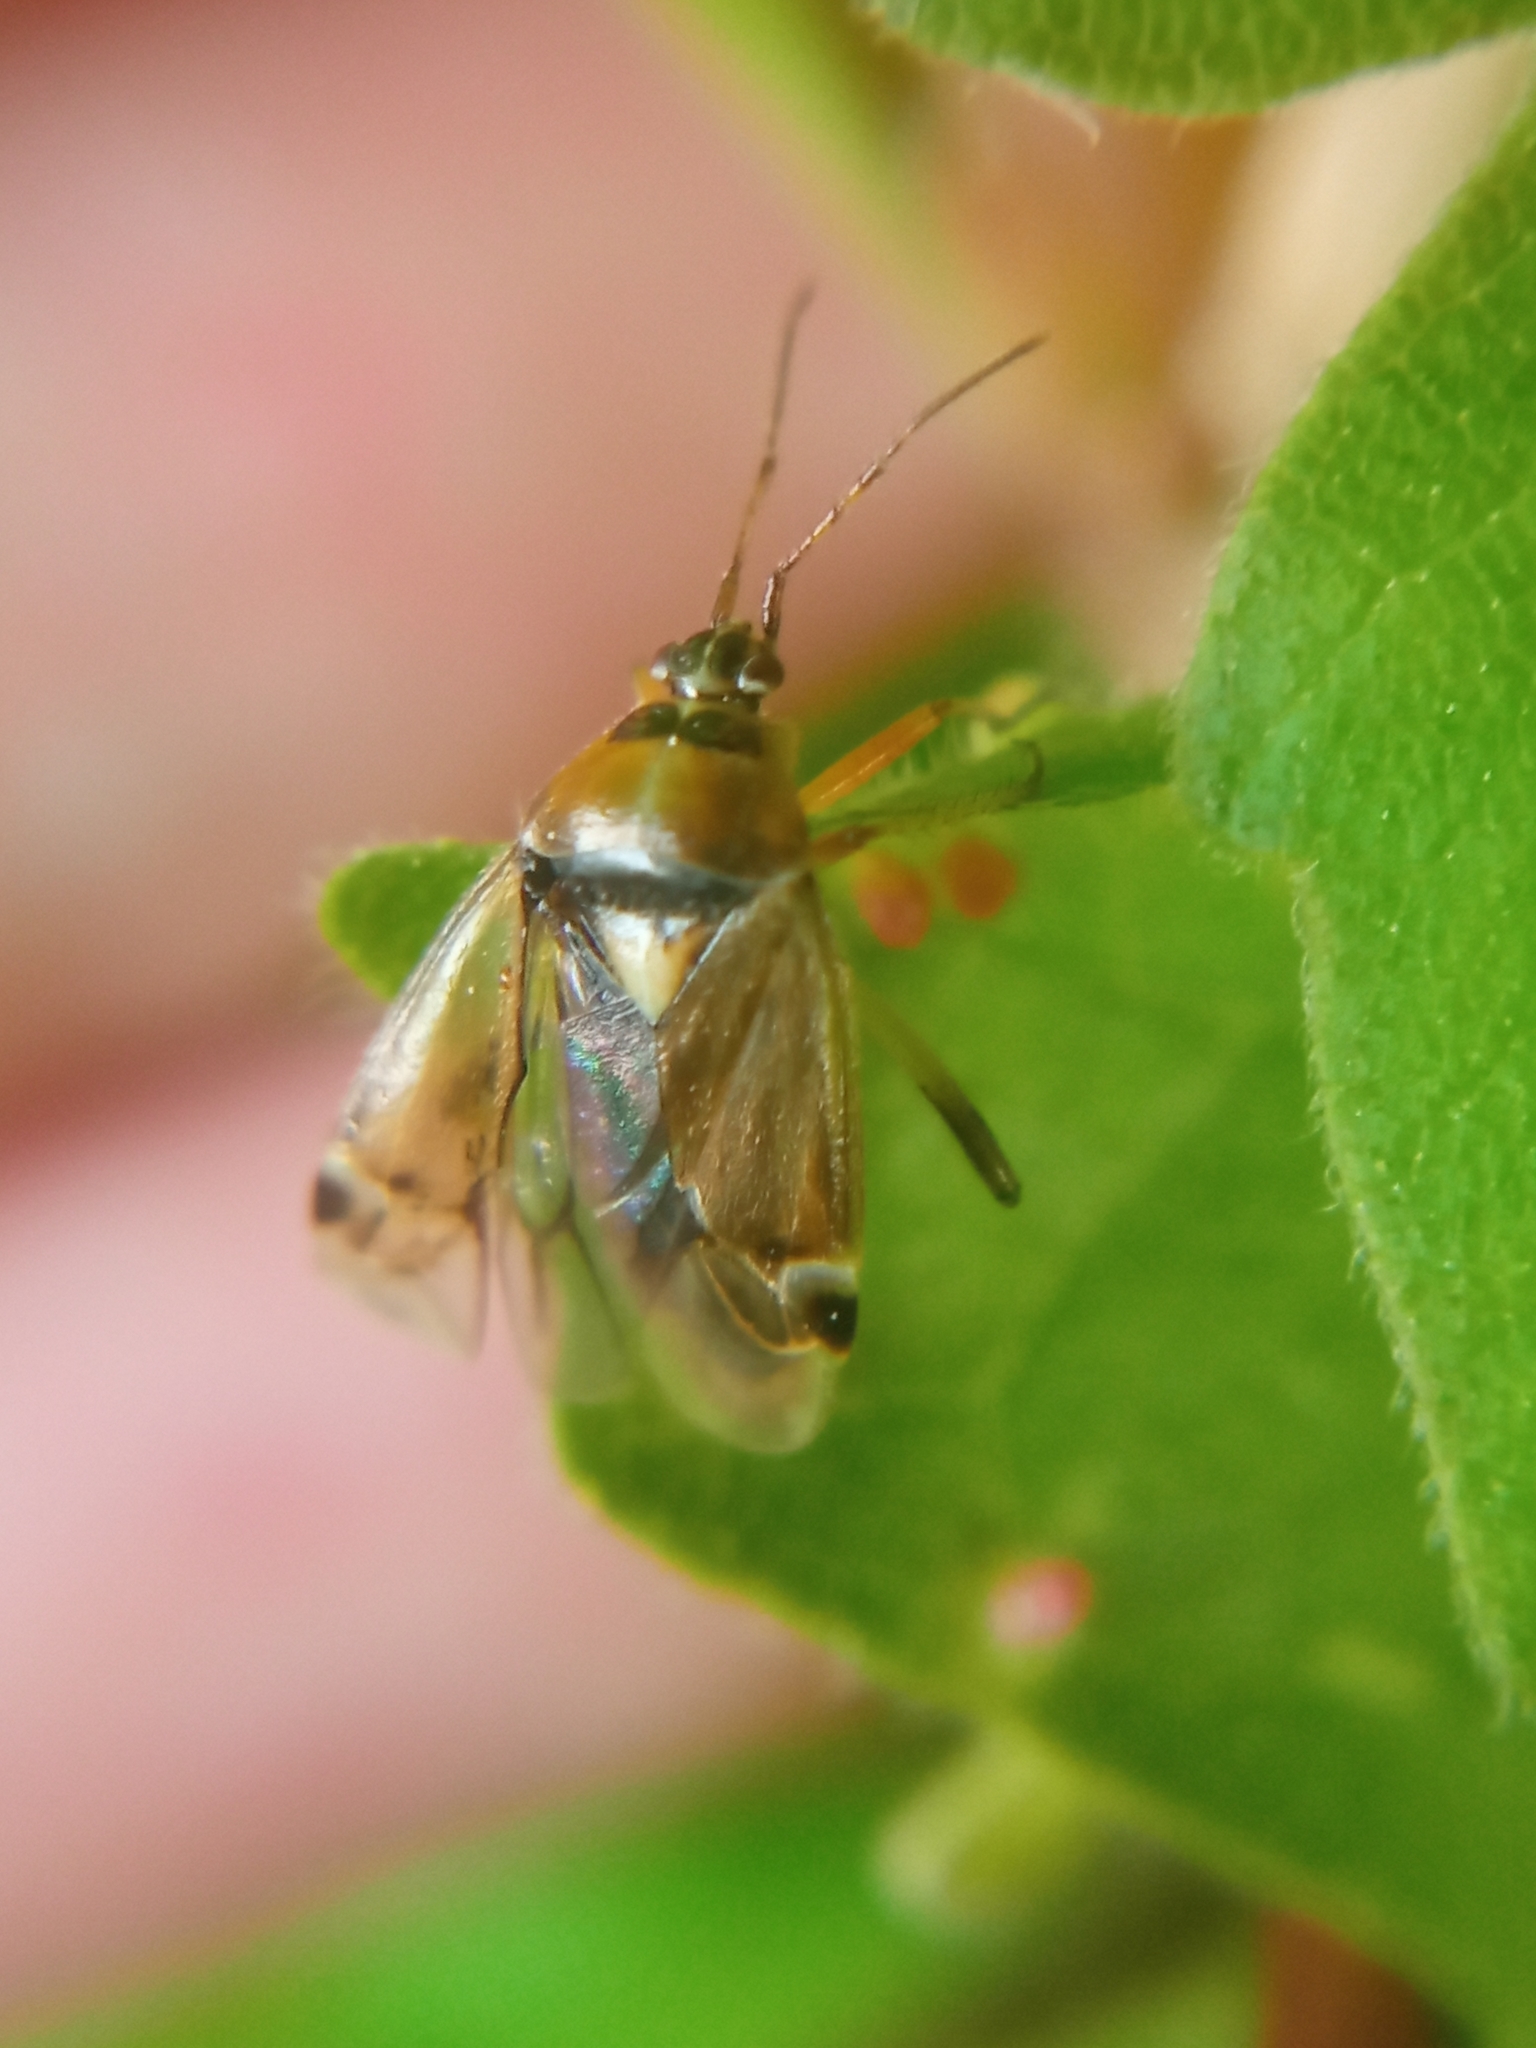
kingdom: Animalia
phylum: Arthropoda
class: Insecta
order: Hemiptera
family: Miridae
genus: Harpocera
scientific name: Harpocera thoracica
